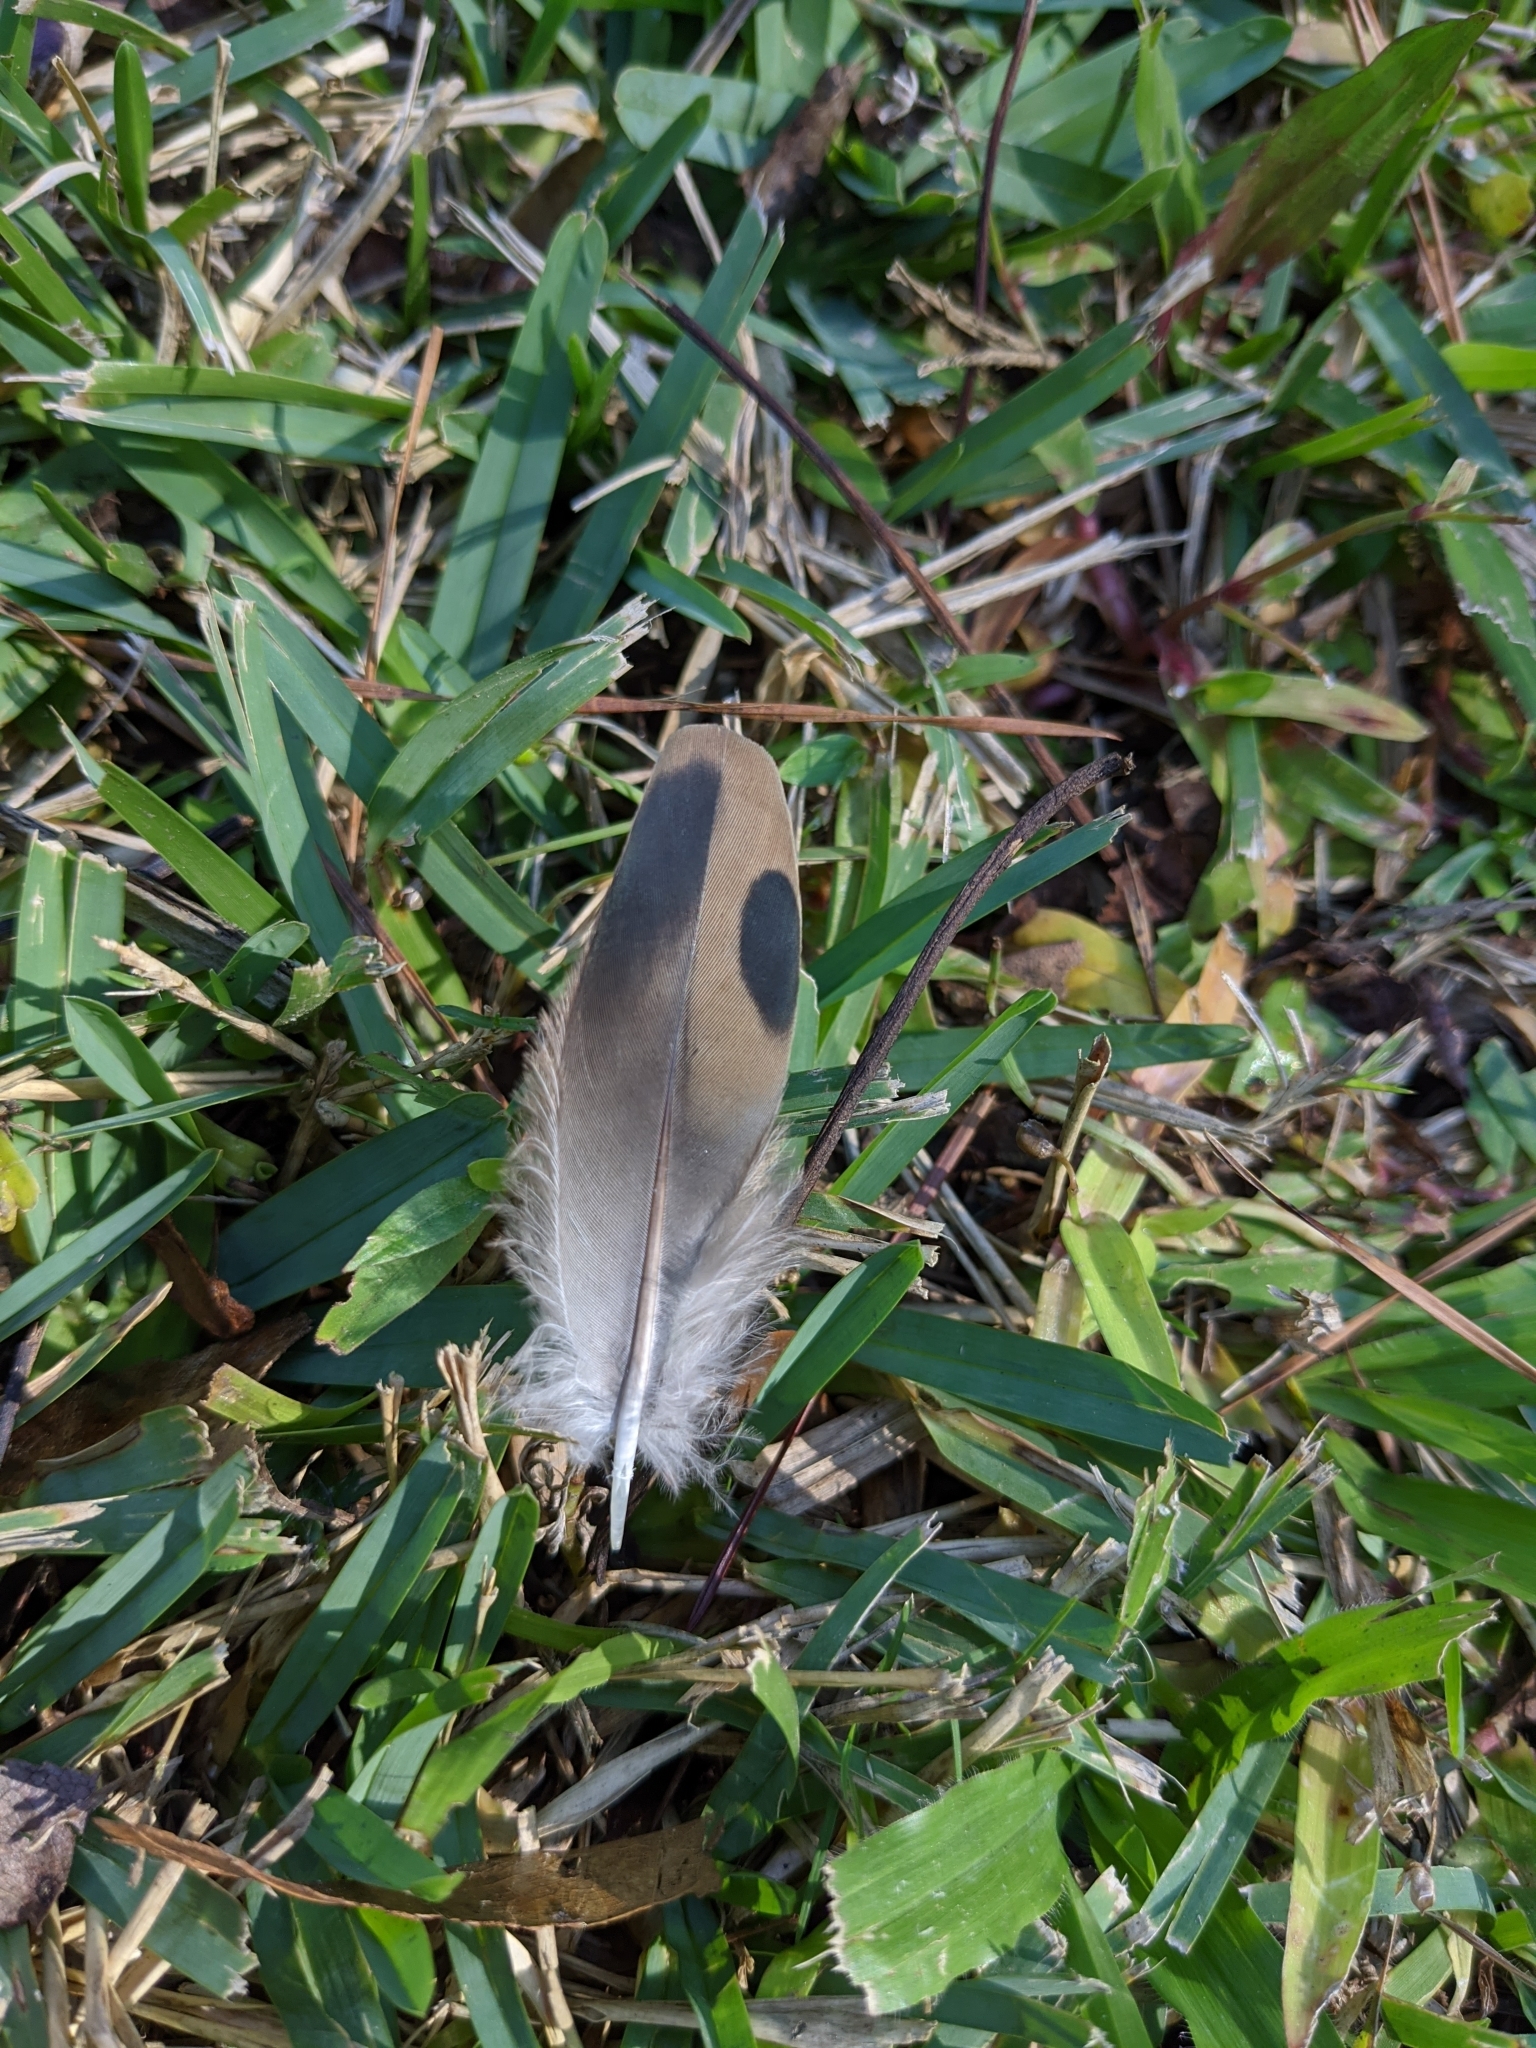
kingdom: Animalia
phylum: Chordata
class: Aves
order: Columbiformes
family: Columbidae
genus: Zenaida
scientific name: Zenaida macroura
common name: Mourning dove
